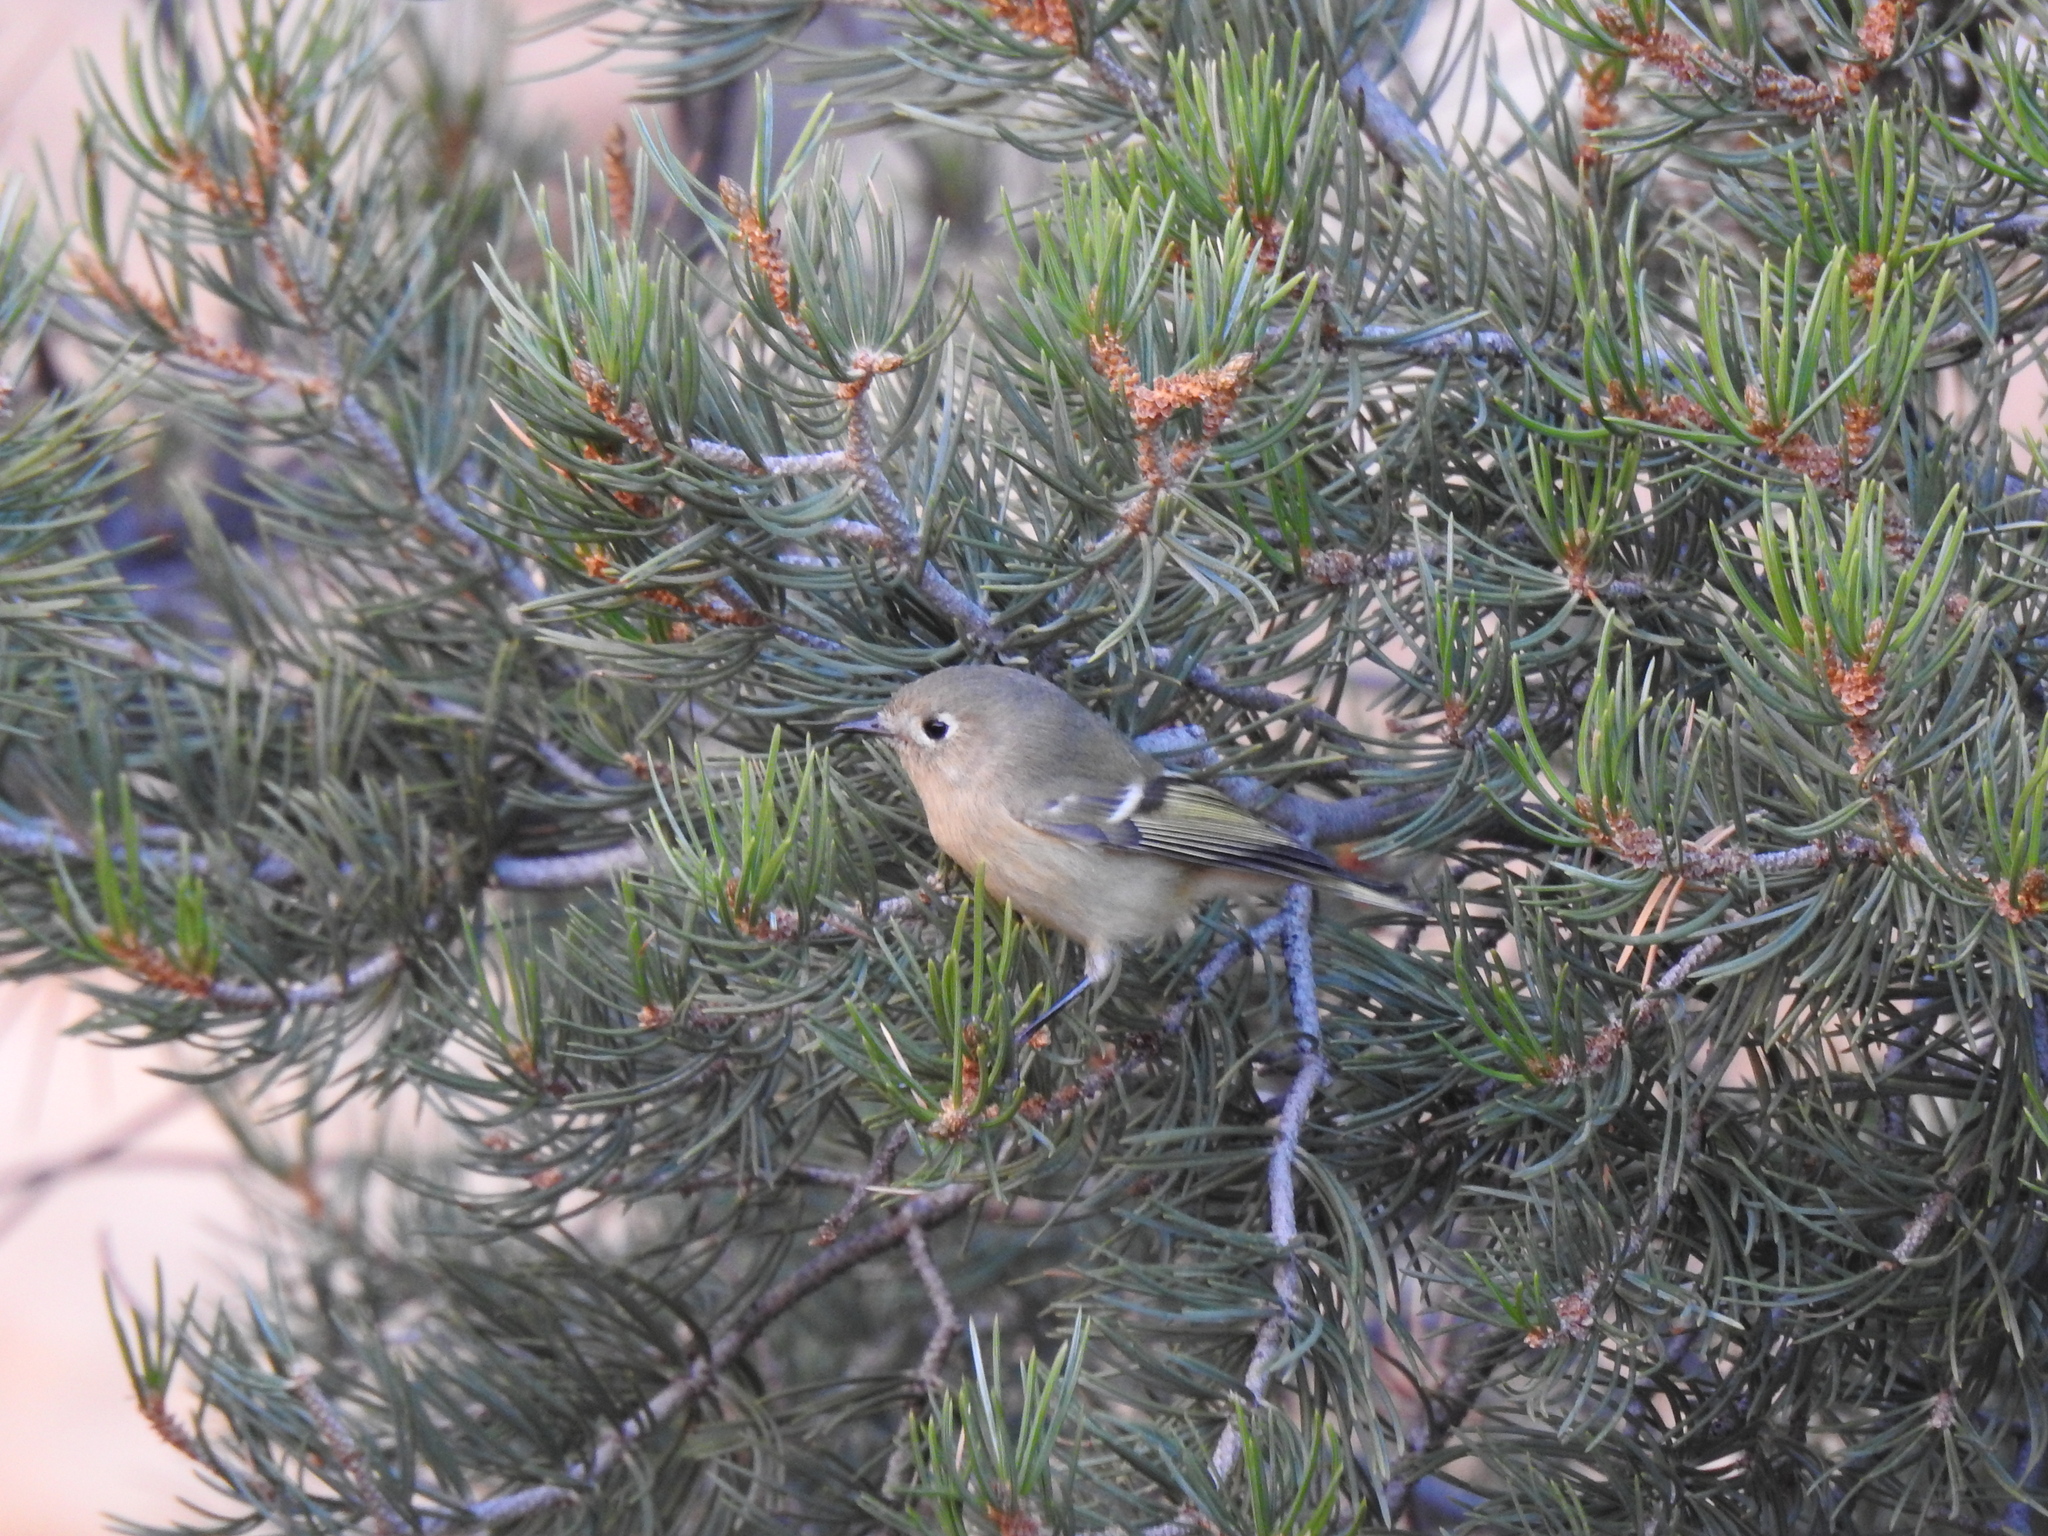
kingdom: Animalia
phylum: Chordata
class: Aves
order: Passeriformes
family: Regulidae
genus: Regulus
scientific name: Regulus calendula
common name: Ruby-crowned kinglet
